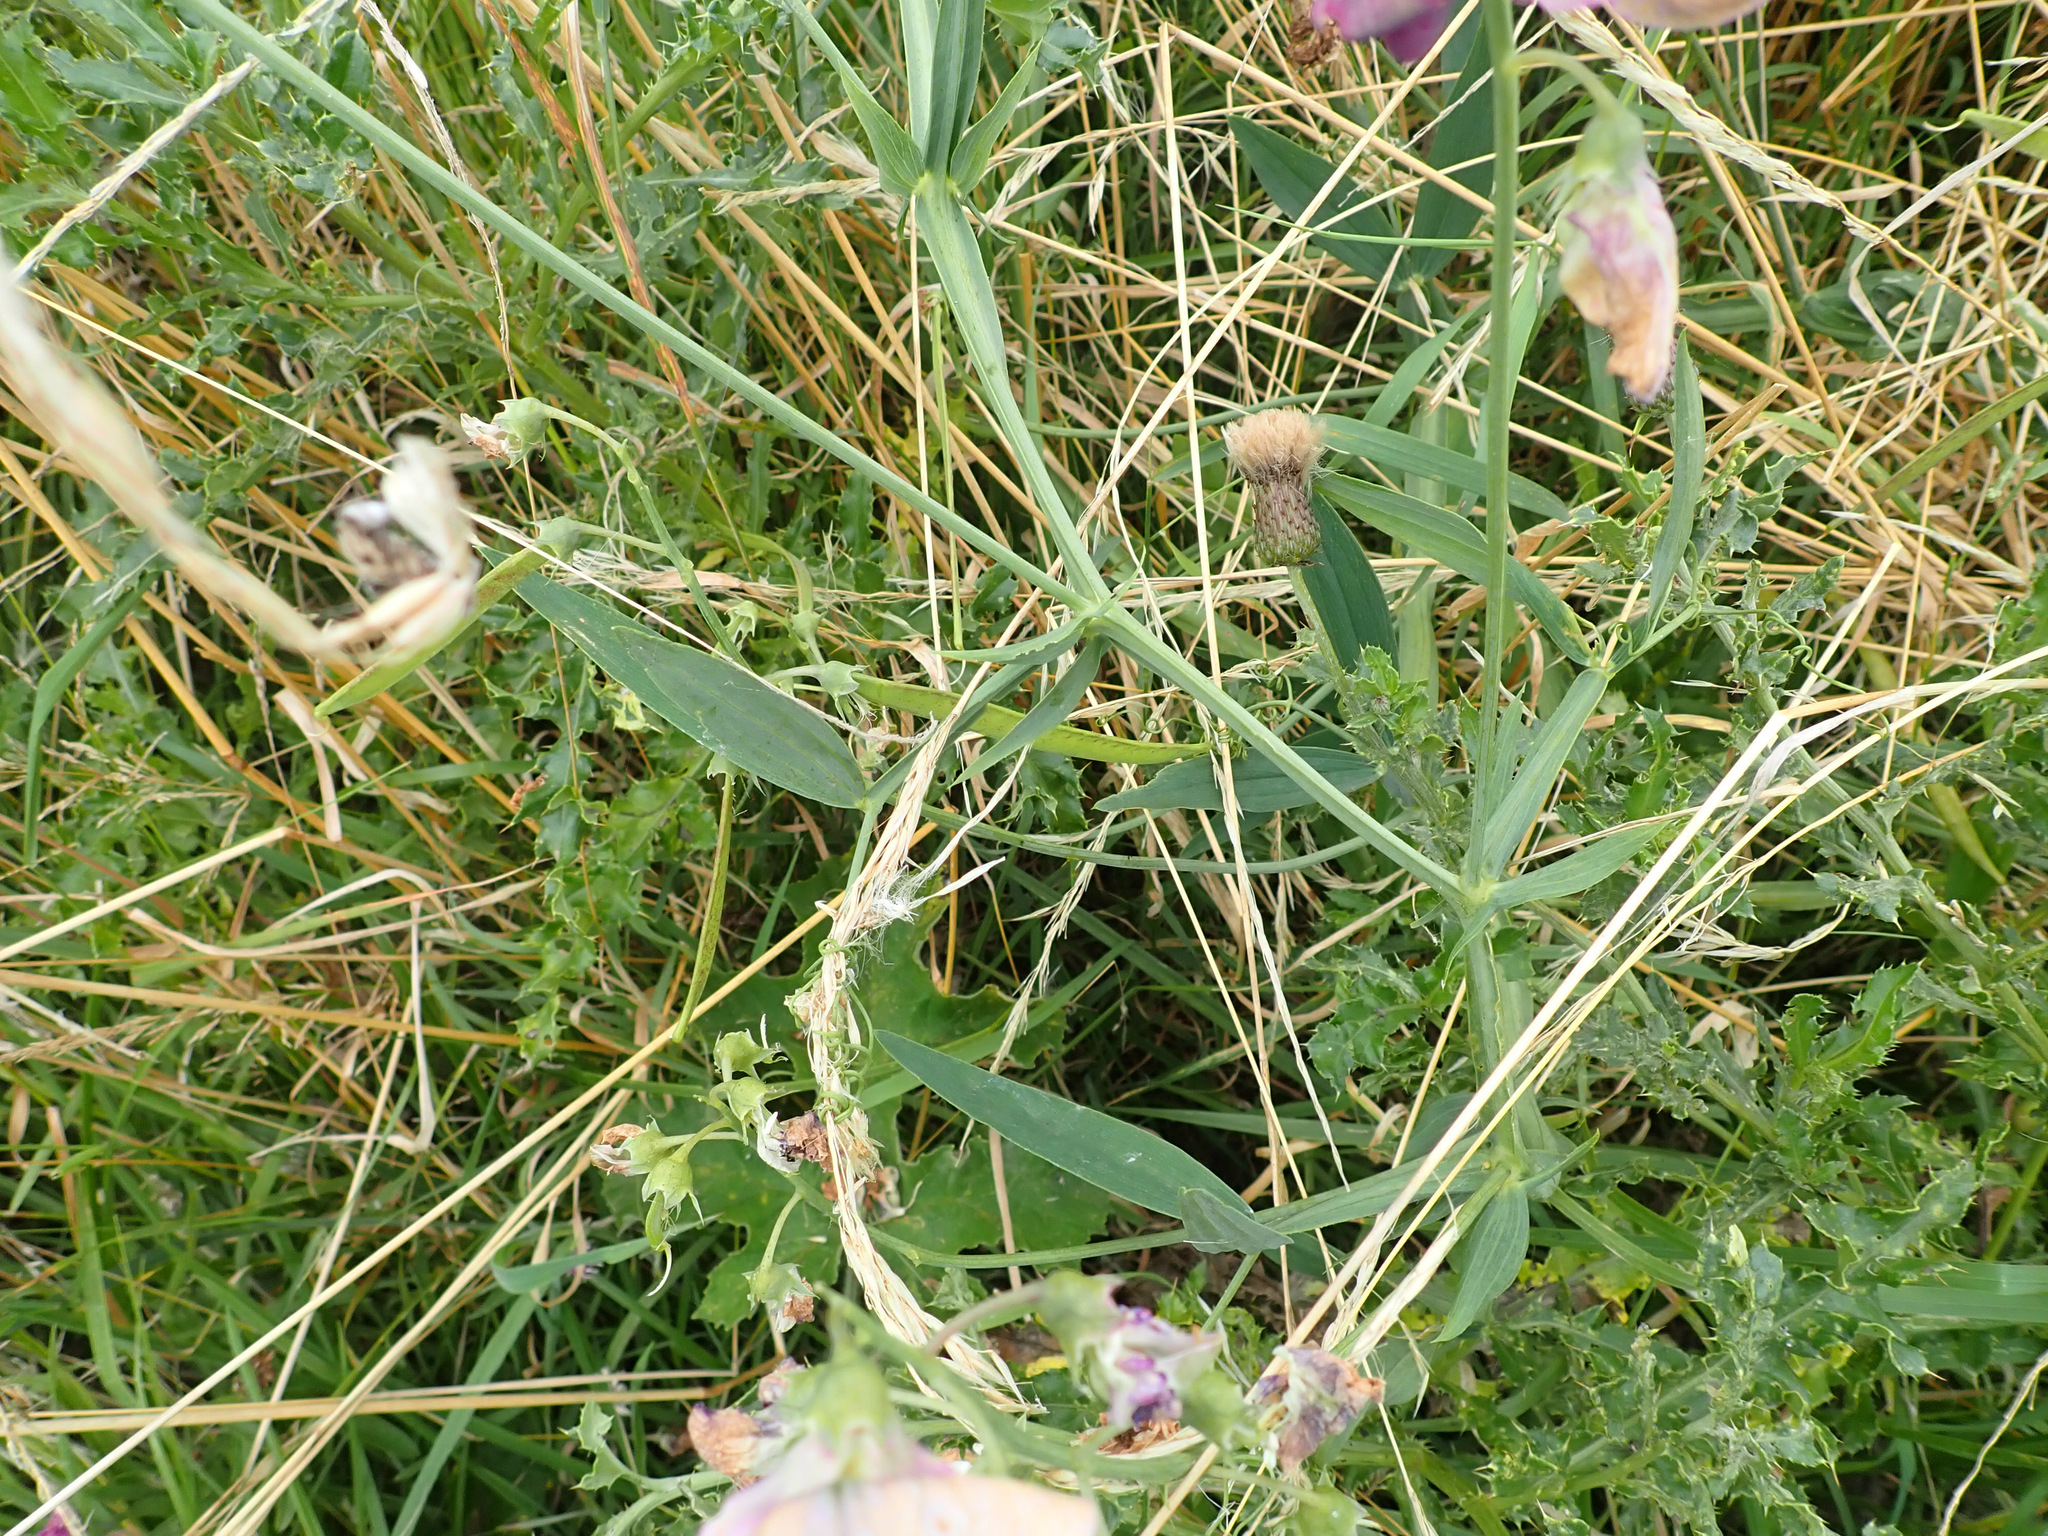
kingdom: Plantae
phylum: Tracheophyta
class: Magnoliopsida
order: Fabales
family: Fabaceae
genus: Lathyrus
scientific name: Lathyrus latifolius
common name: Perennial pea
